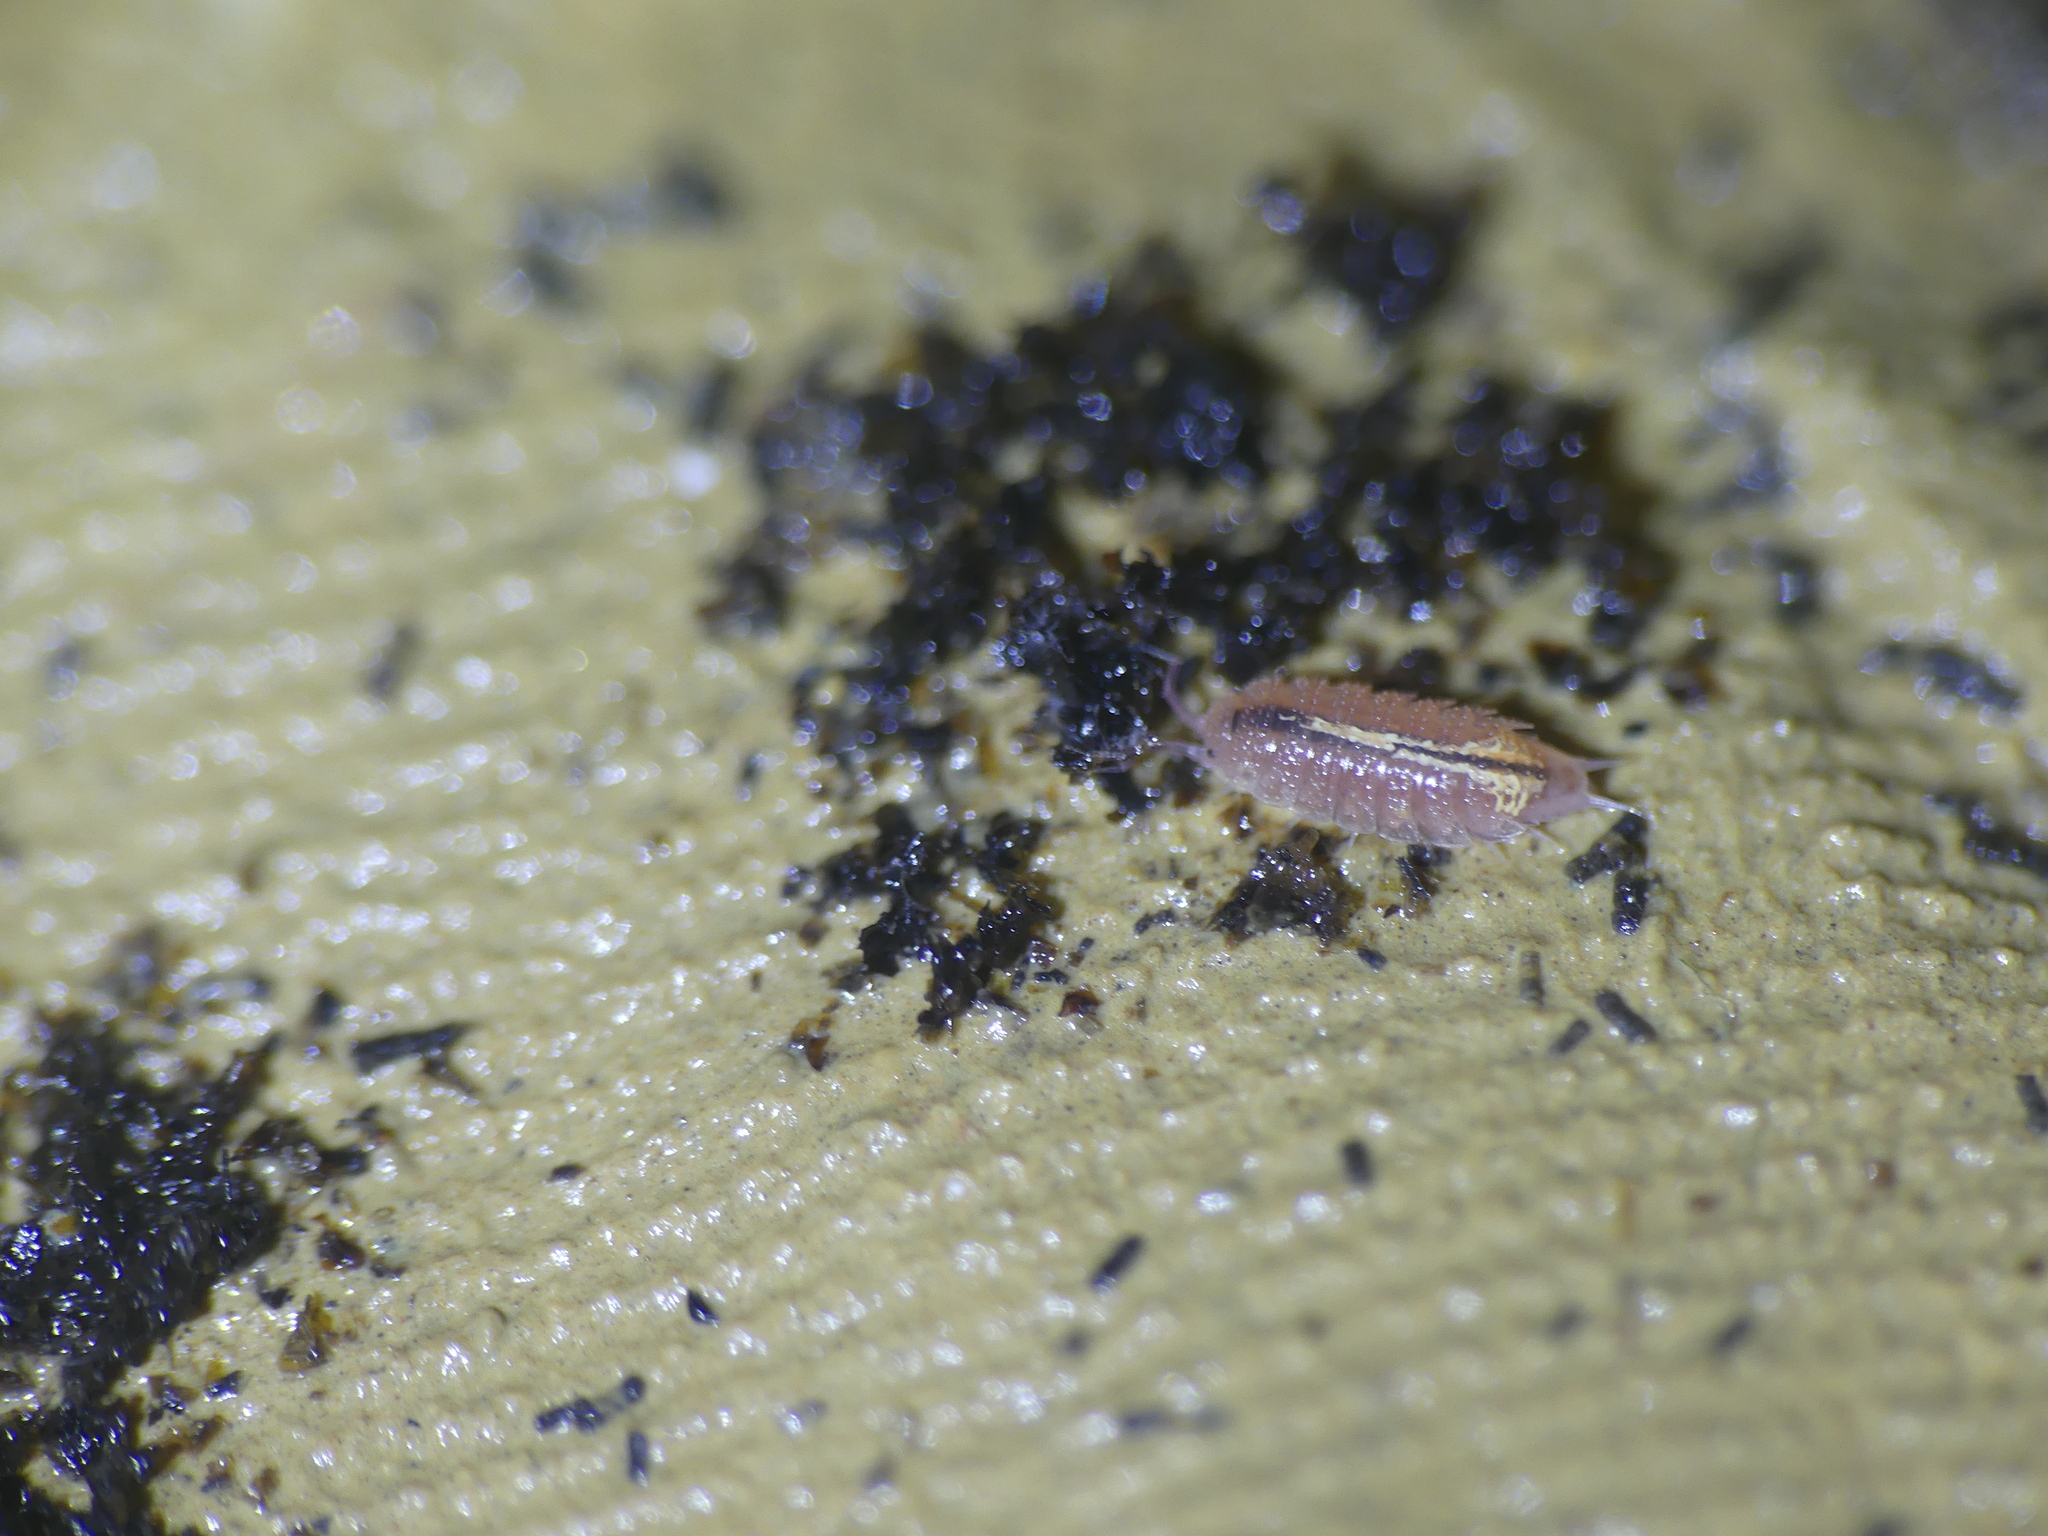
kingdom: Animalia
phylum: Arthropoda
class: Malacostraca
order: Isopoda
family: Trichoniscidae
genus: Androniscus
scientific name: Androniscus dentiger
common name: Rosy woodlouse
